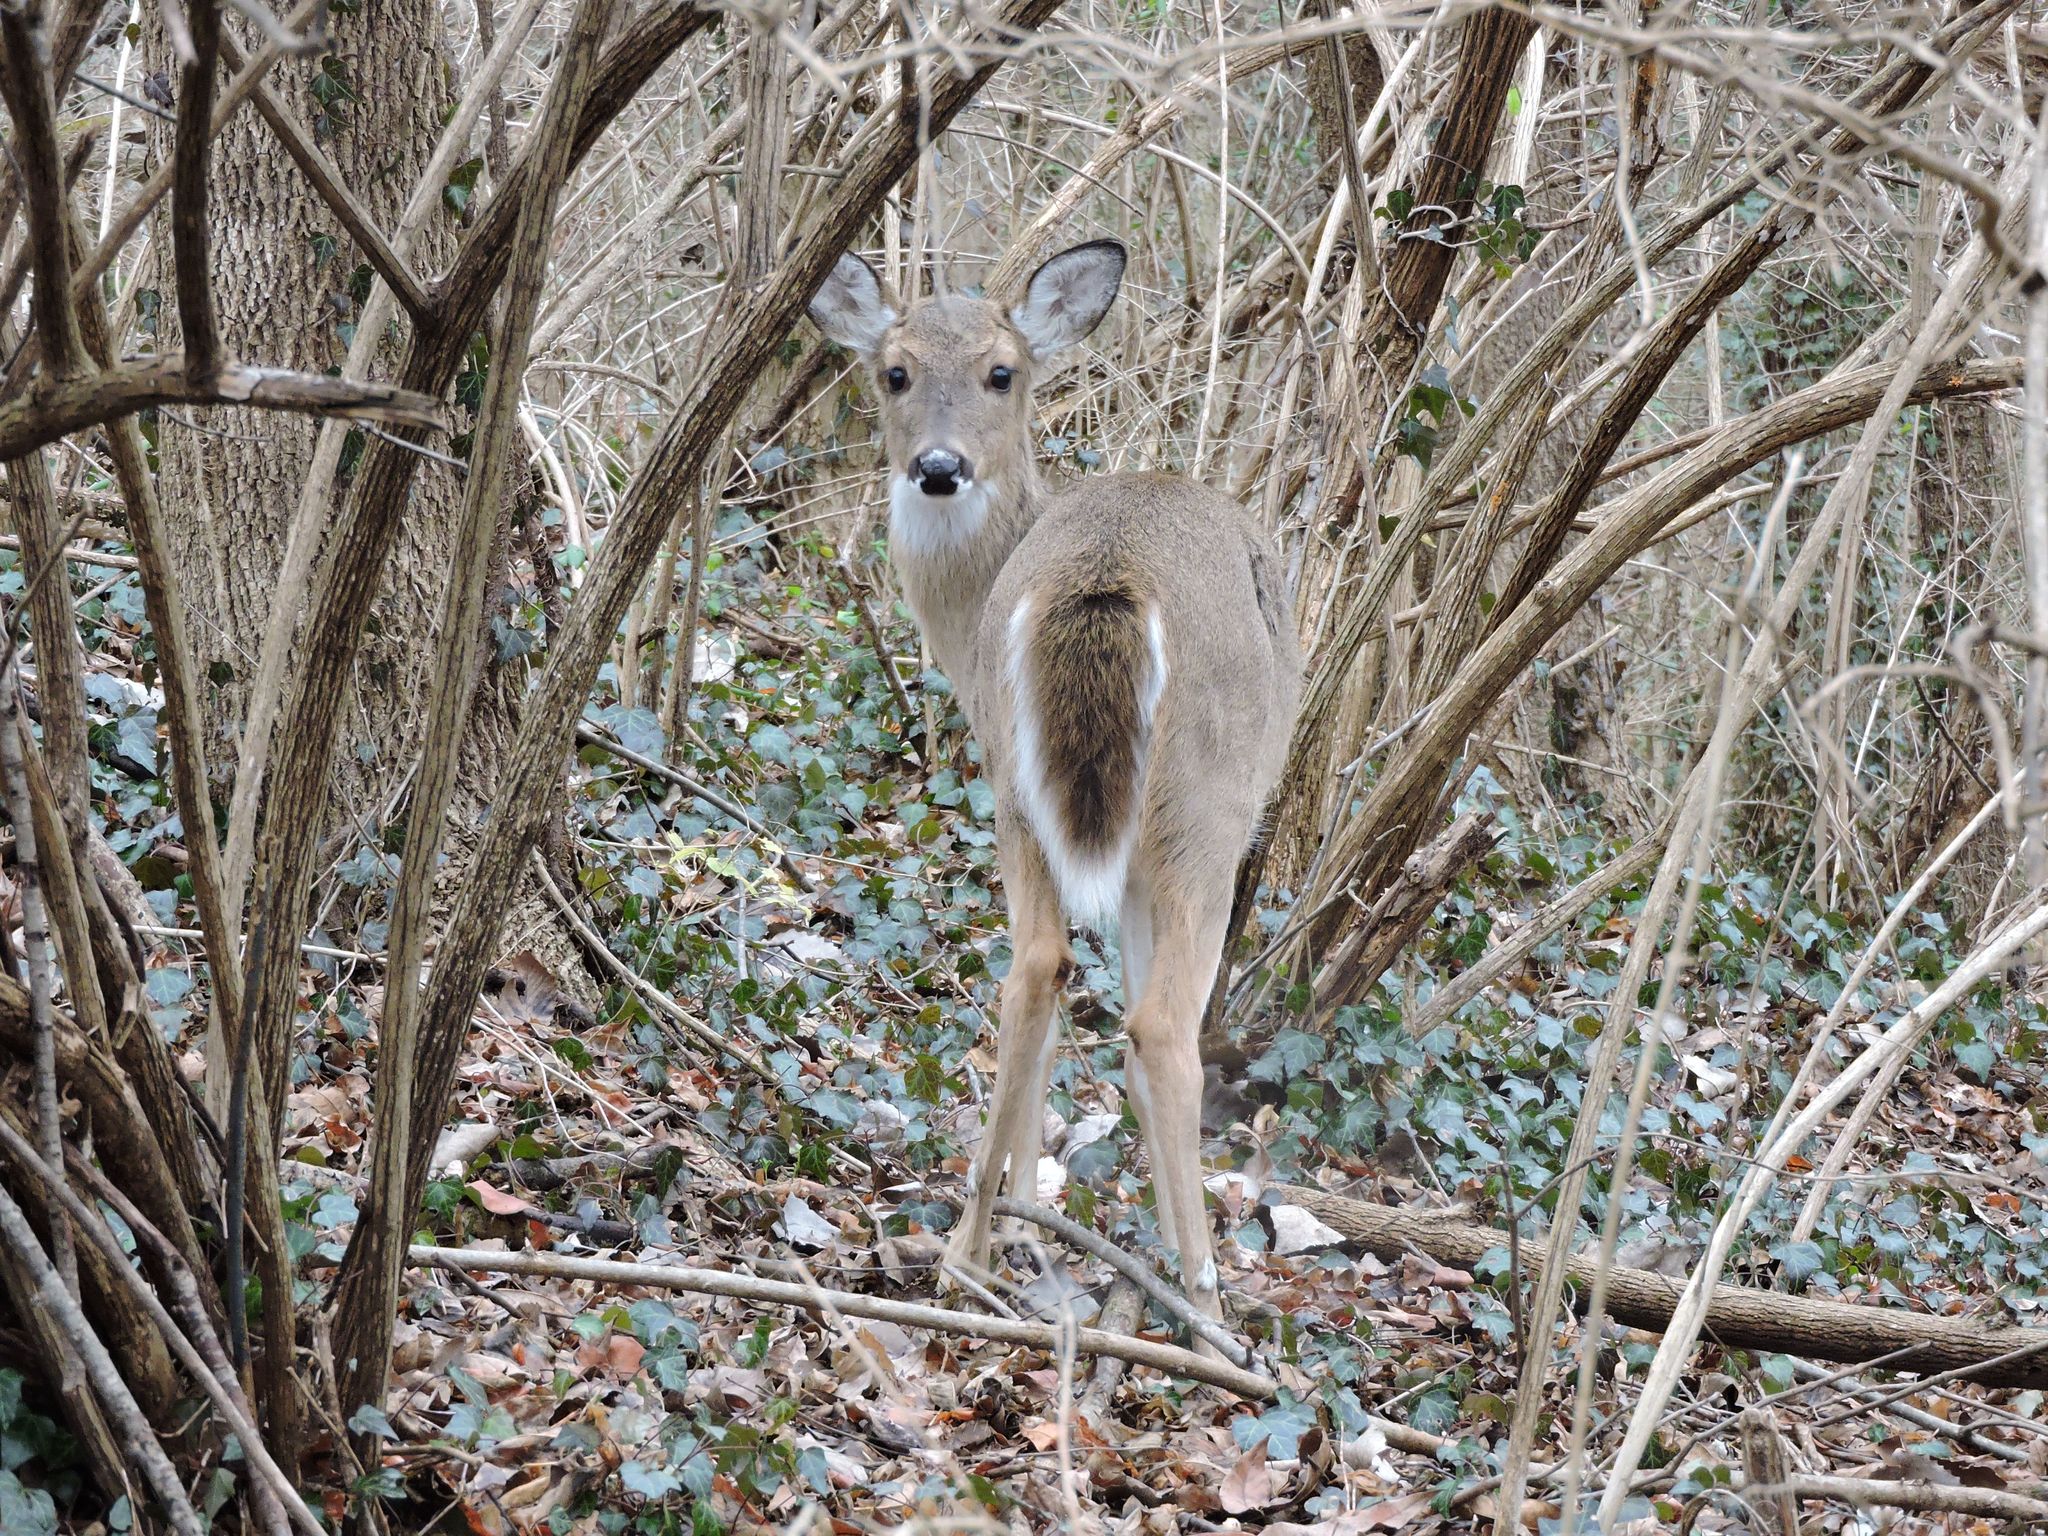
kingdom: Animalia
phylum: Chordata
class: Mammalia
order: Artiodactyla
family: Cervidae
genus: Odocoileus
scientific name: Odocoileus virginianus
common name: White-tailed deer
